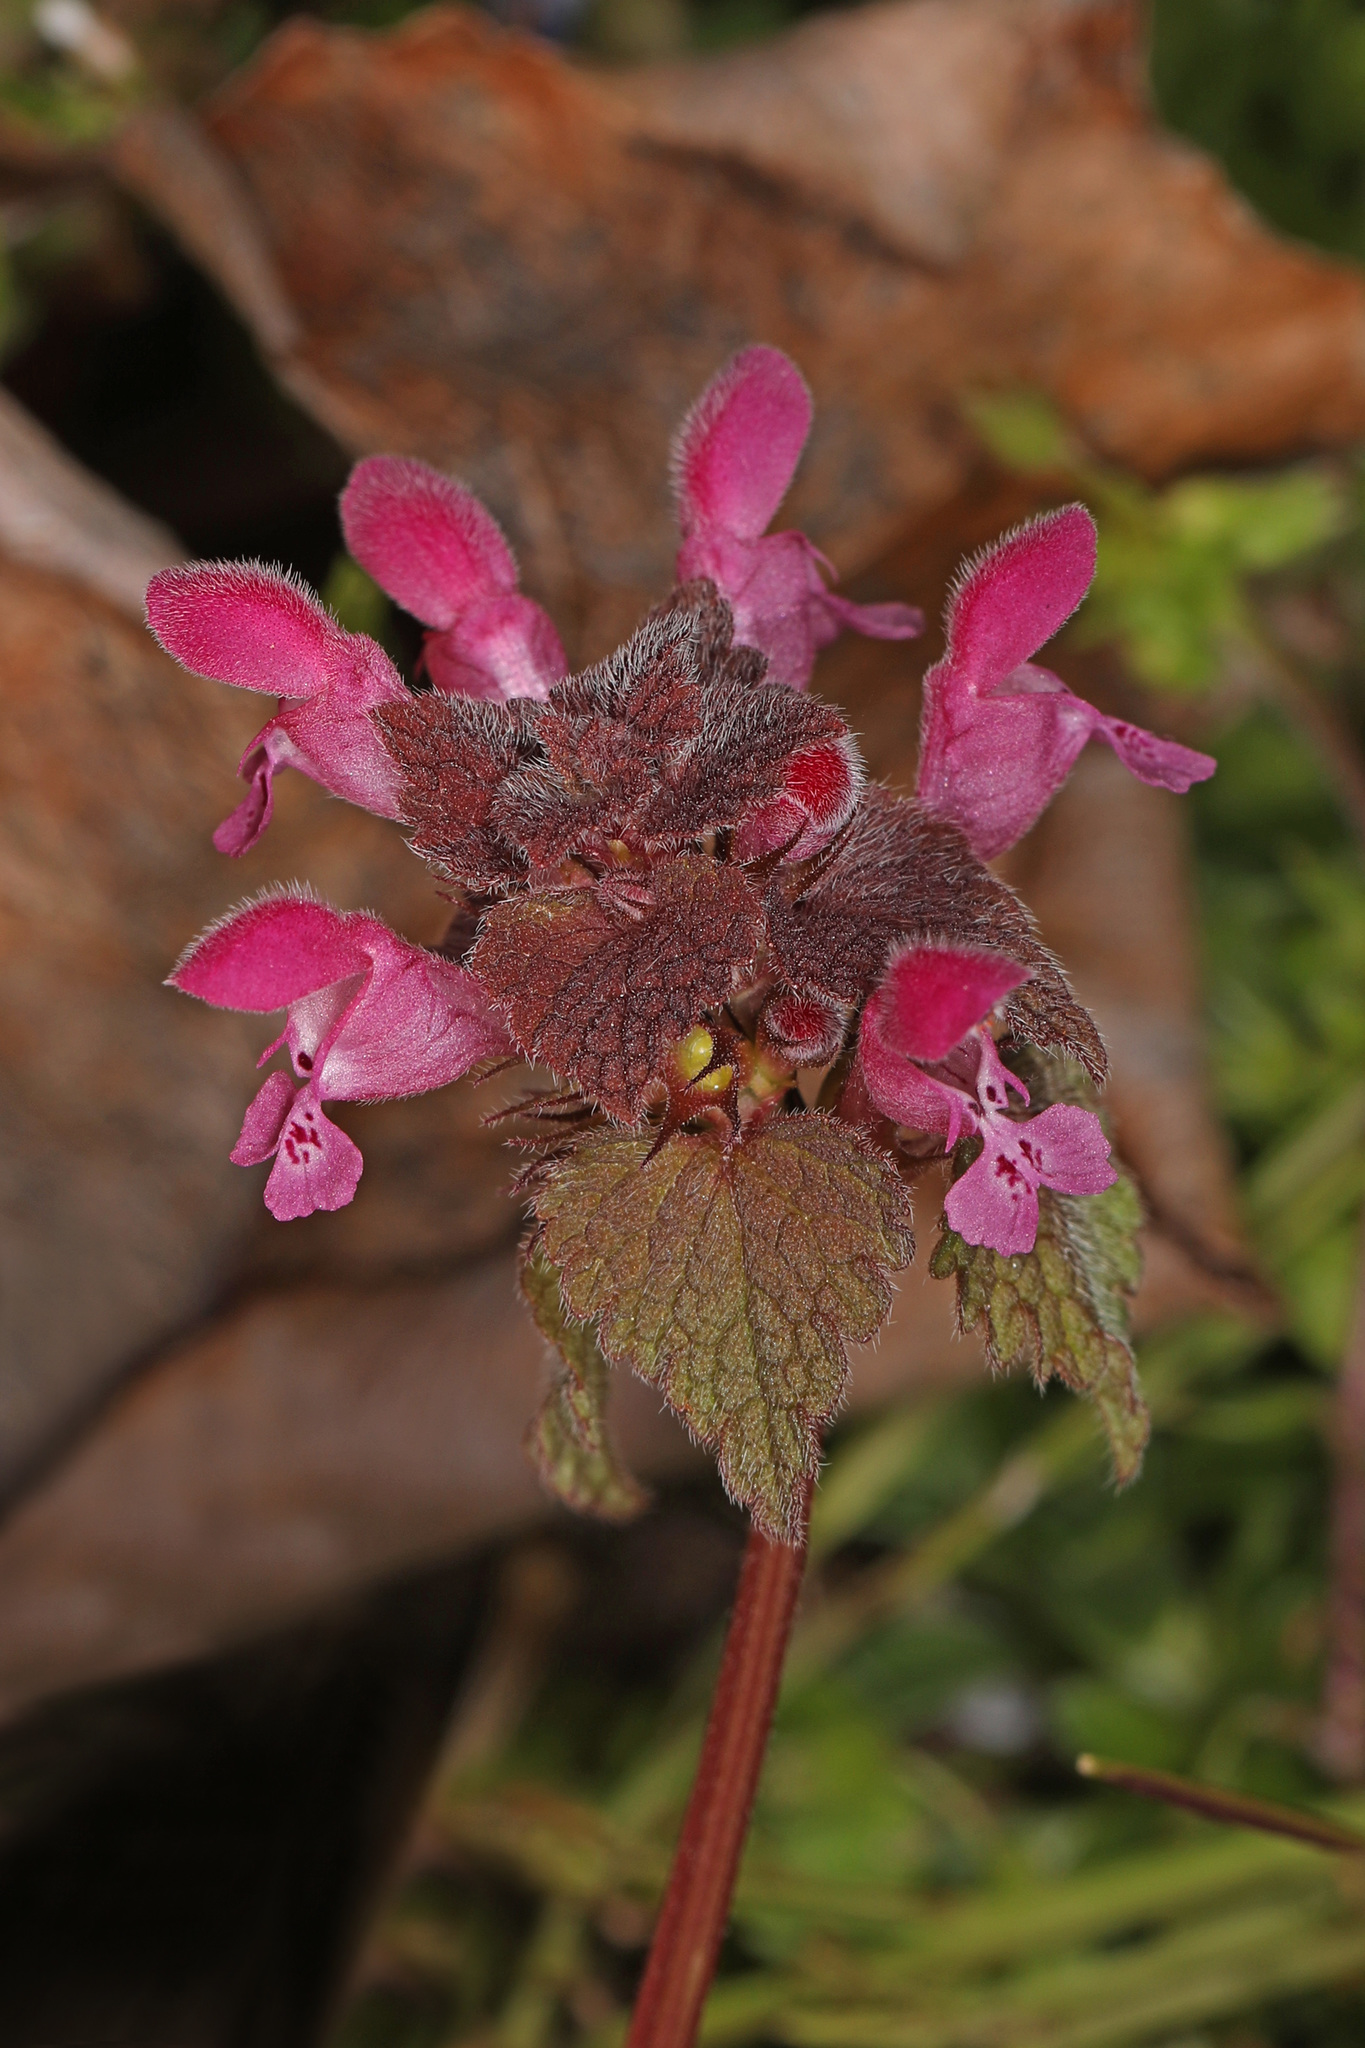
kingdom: Plantae
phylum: Tracheophyta
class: Magnoliopsida
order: Lamiales
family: Lamiaceae
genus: Lamium
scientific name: Lamium purpureum
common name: Red dead-nettle
